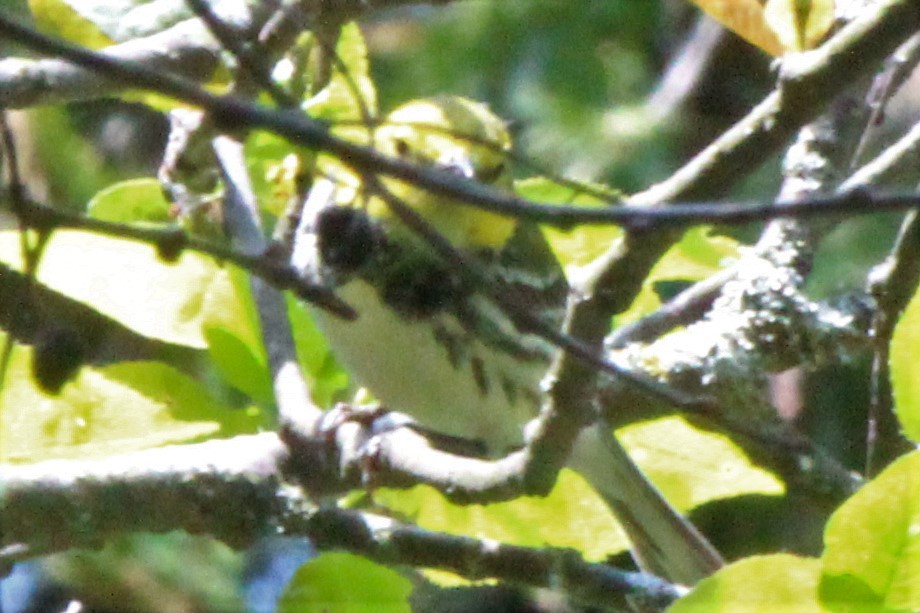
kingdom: Animalia
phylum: Chordata
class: Aves
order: Passeriformes
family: Parulidae
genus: Setophaga
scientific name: Setophaga virens
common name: Black-throated green warbler
